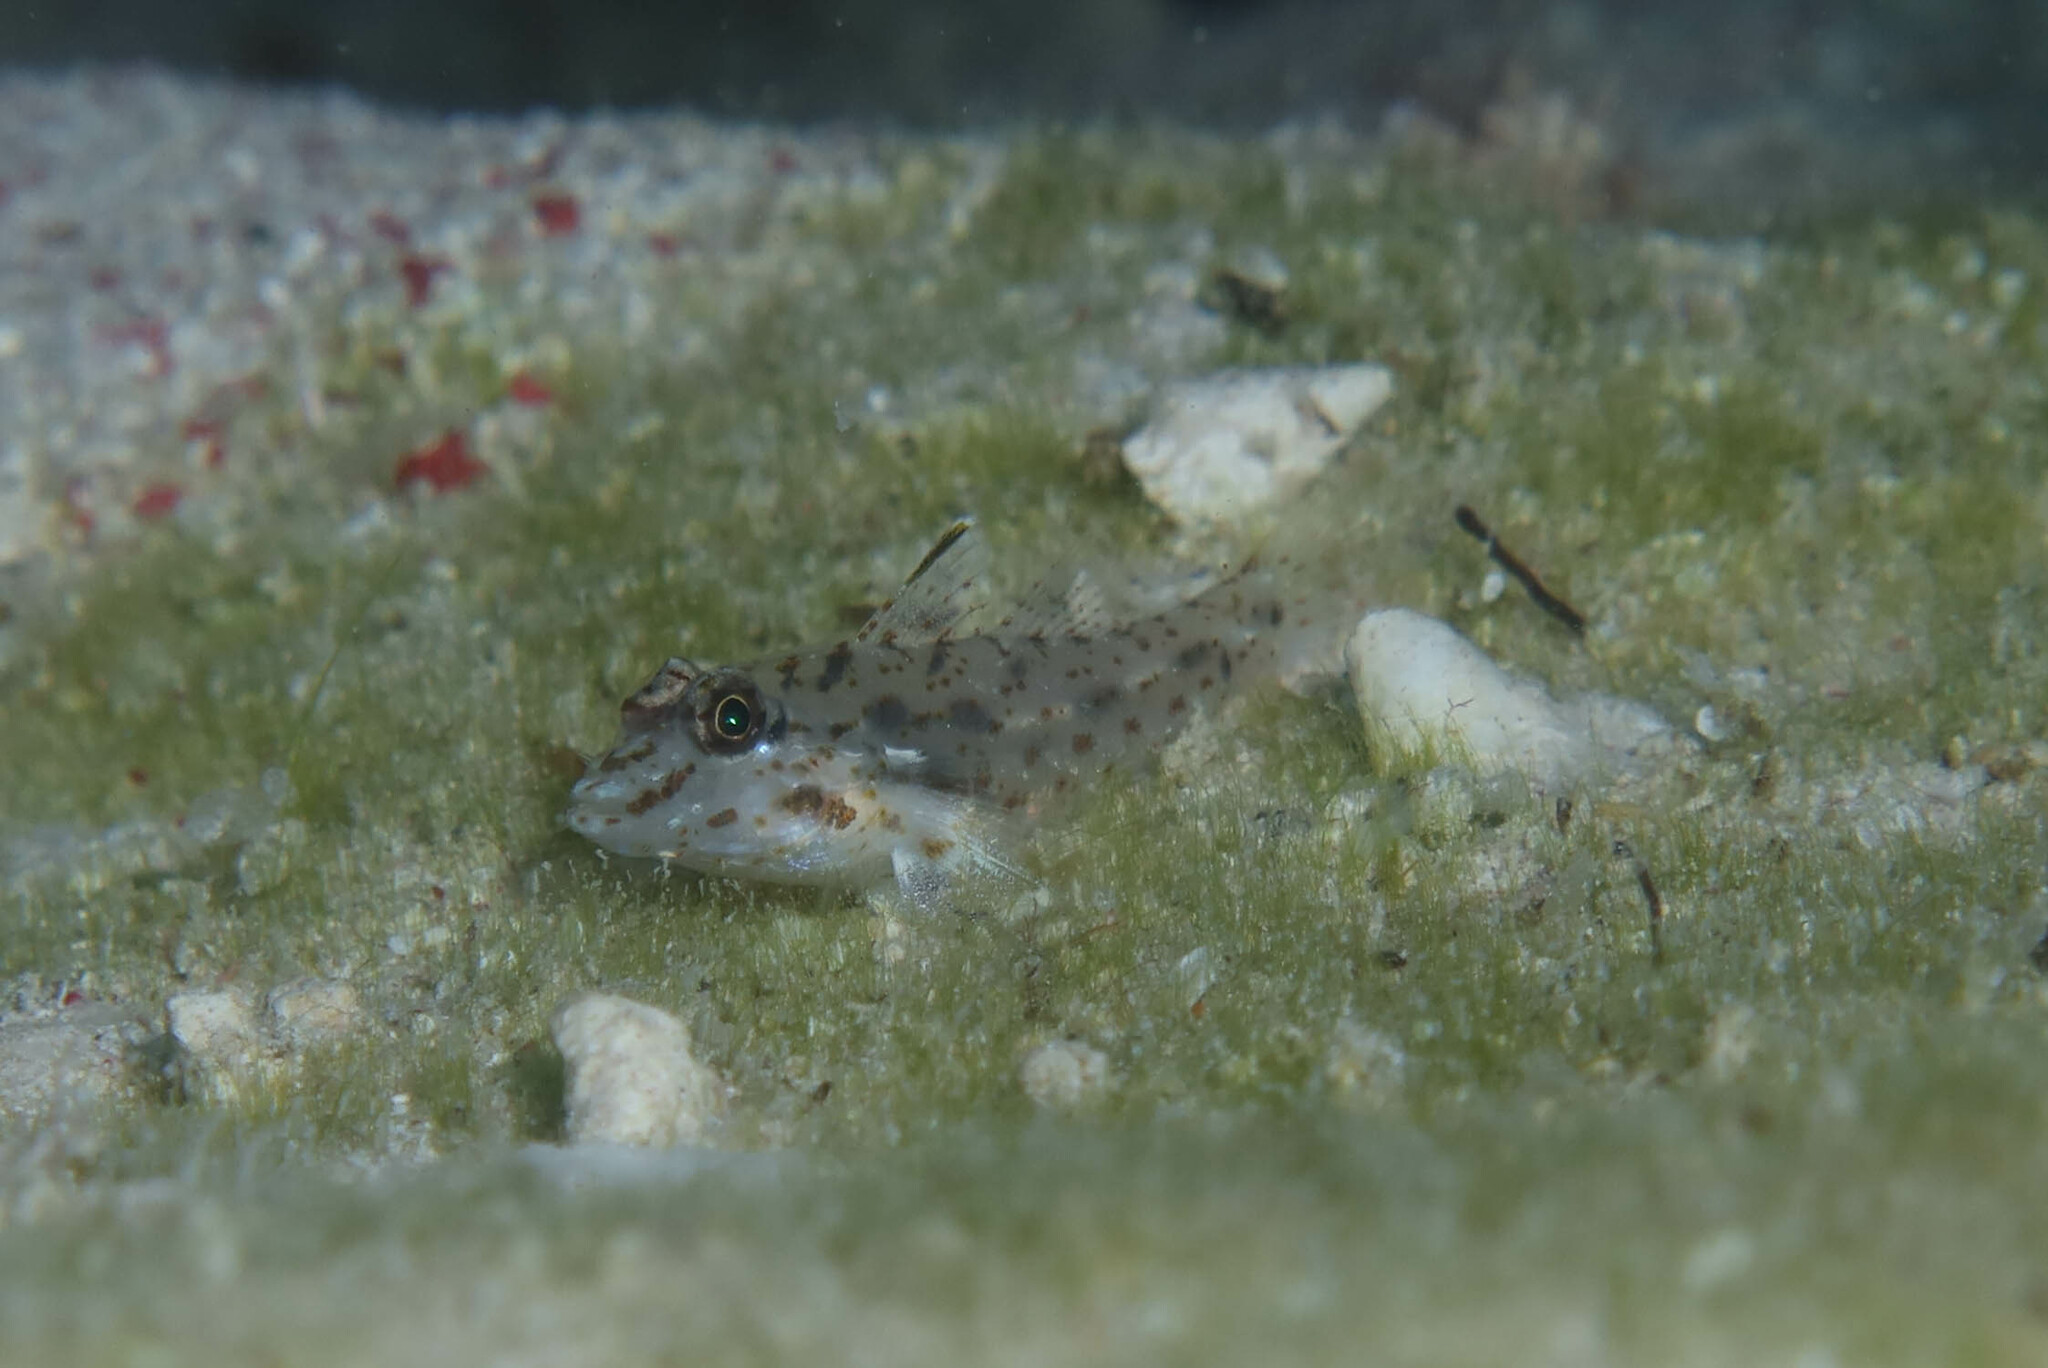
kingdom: Animalia
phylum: Chordata
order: Perciformes
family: Gobiidae
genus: Fusigobius
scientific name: Fusigobius neophytus
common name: Sand goby
